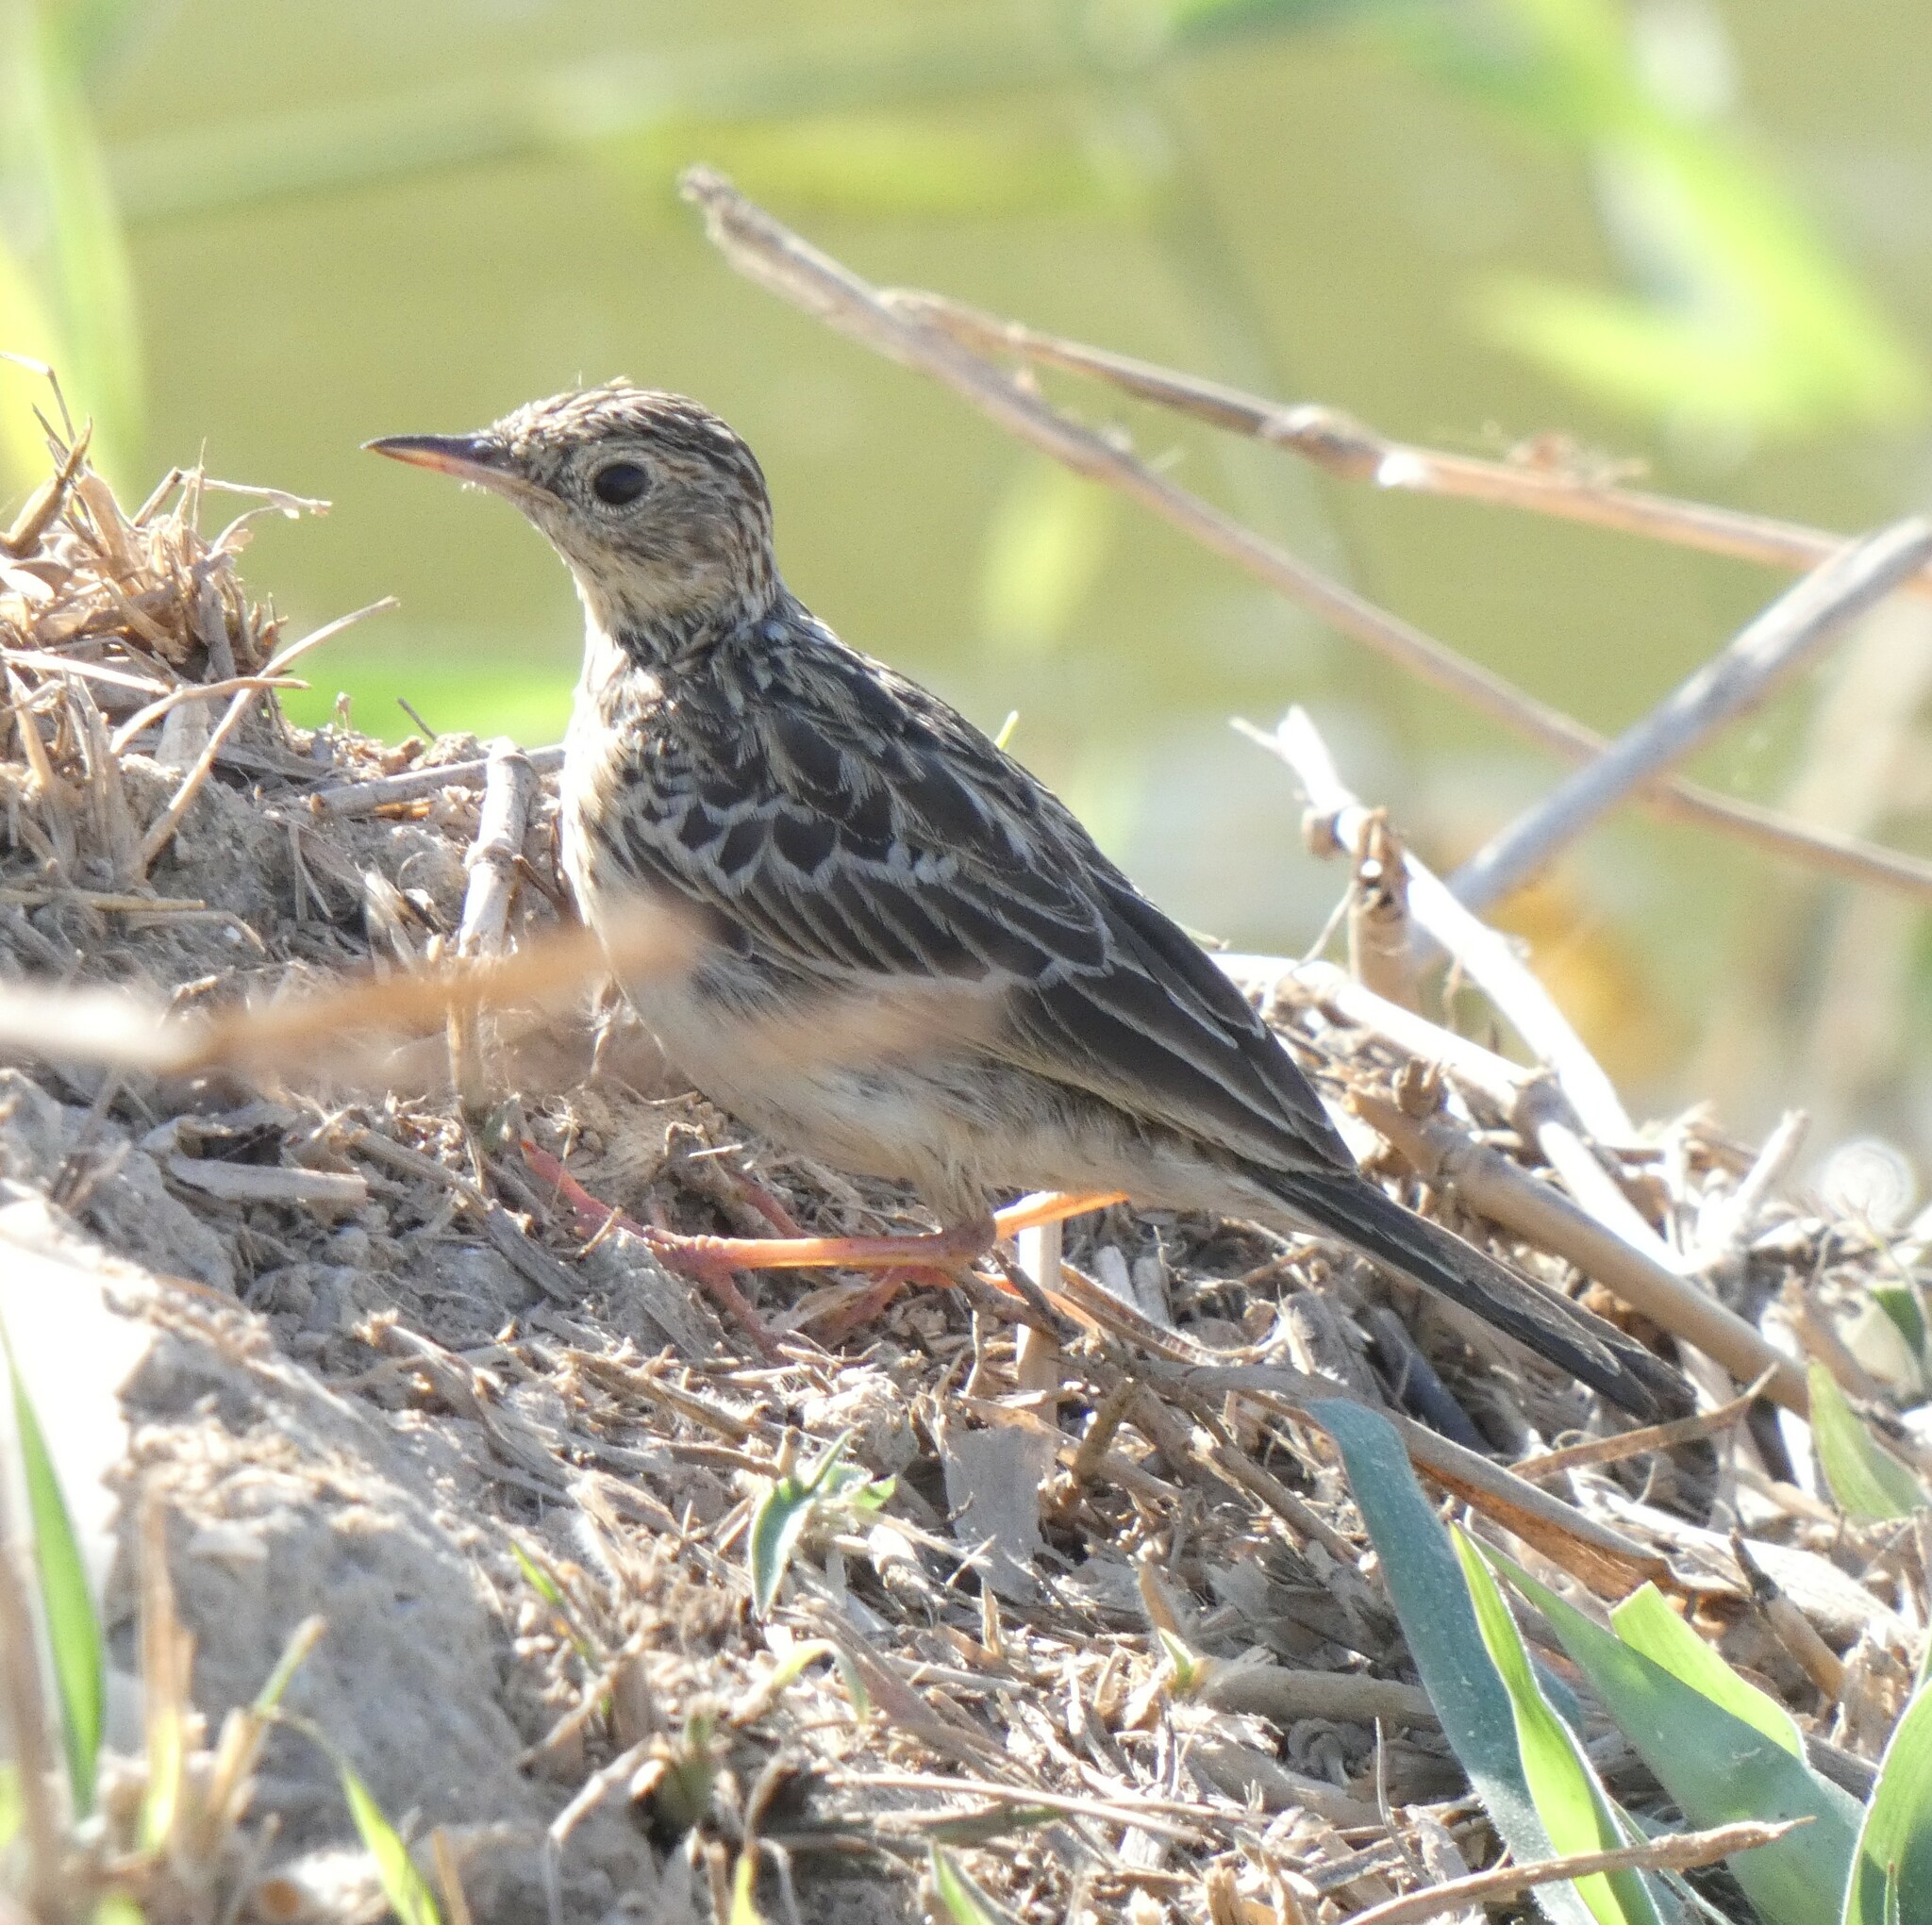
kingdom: Animalia
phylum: Chordata
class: Aves
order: Passeriformes
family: Motacillidae
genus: Anthus
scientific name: Anthus chii
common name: Yellowish pipit
